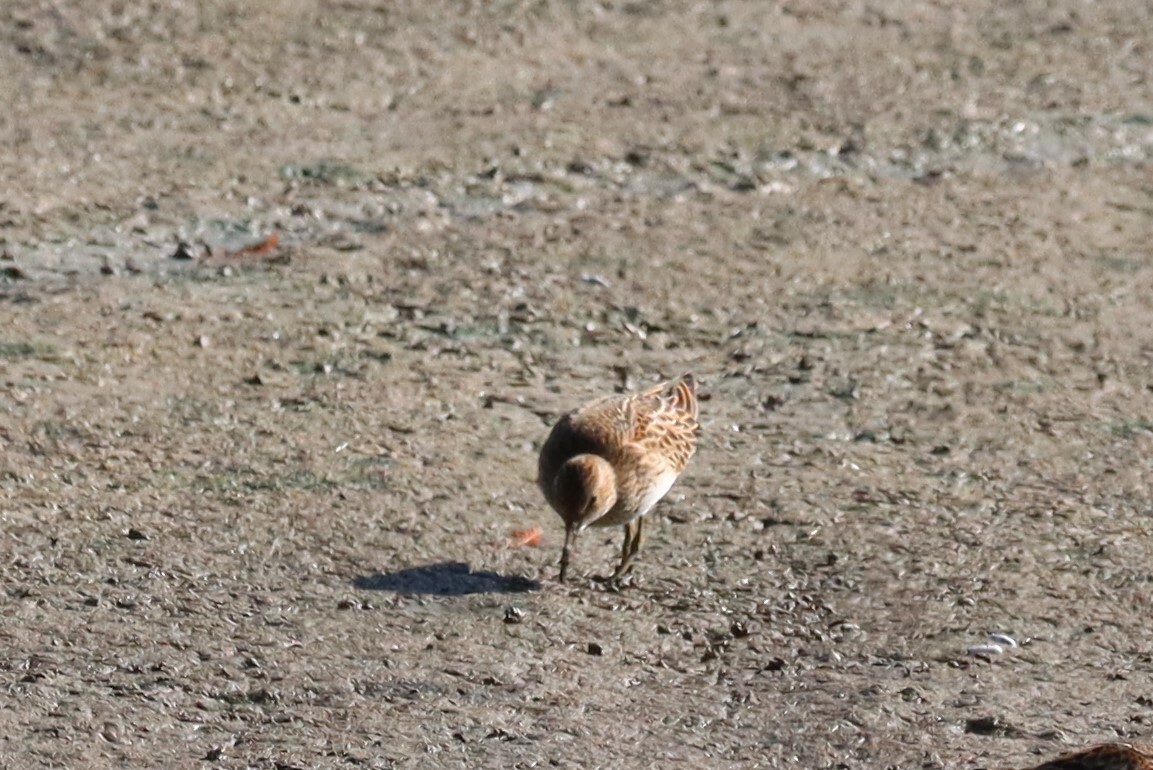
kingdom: Animalia
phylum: Chordata
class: Aves
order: Charadriiformes
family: Scolopacidae
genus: Calidris
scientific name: Calidris minutilla
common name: Least sandpiper
